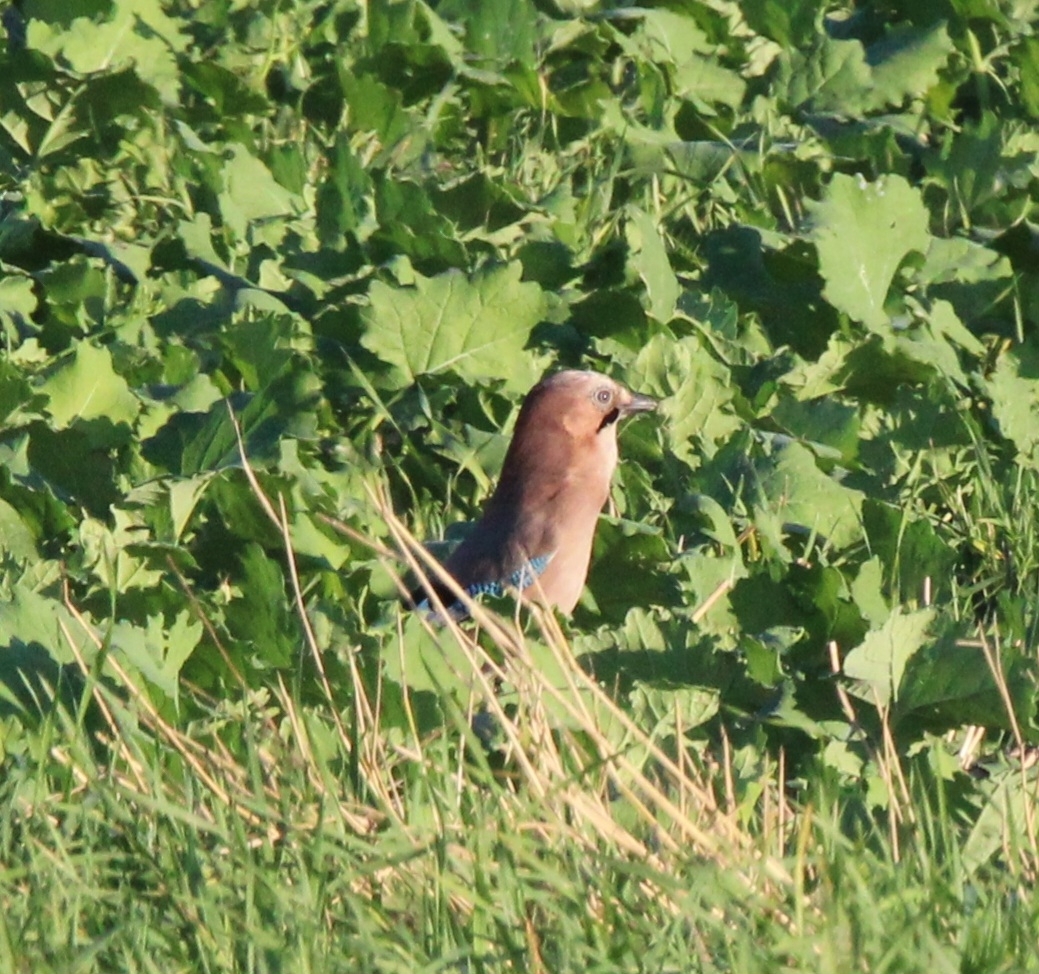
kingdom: Animalia
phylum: Chordata
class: Aves
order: Passeriformes
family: Corvidae
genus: Garrulus
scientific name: Garrulus glandarius
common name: Eurasian jay
